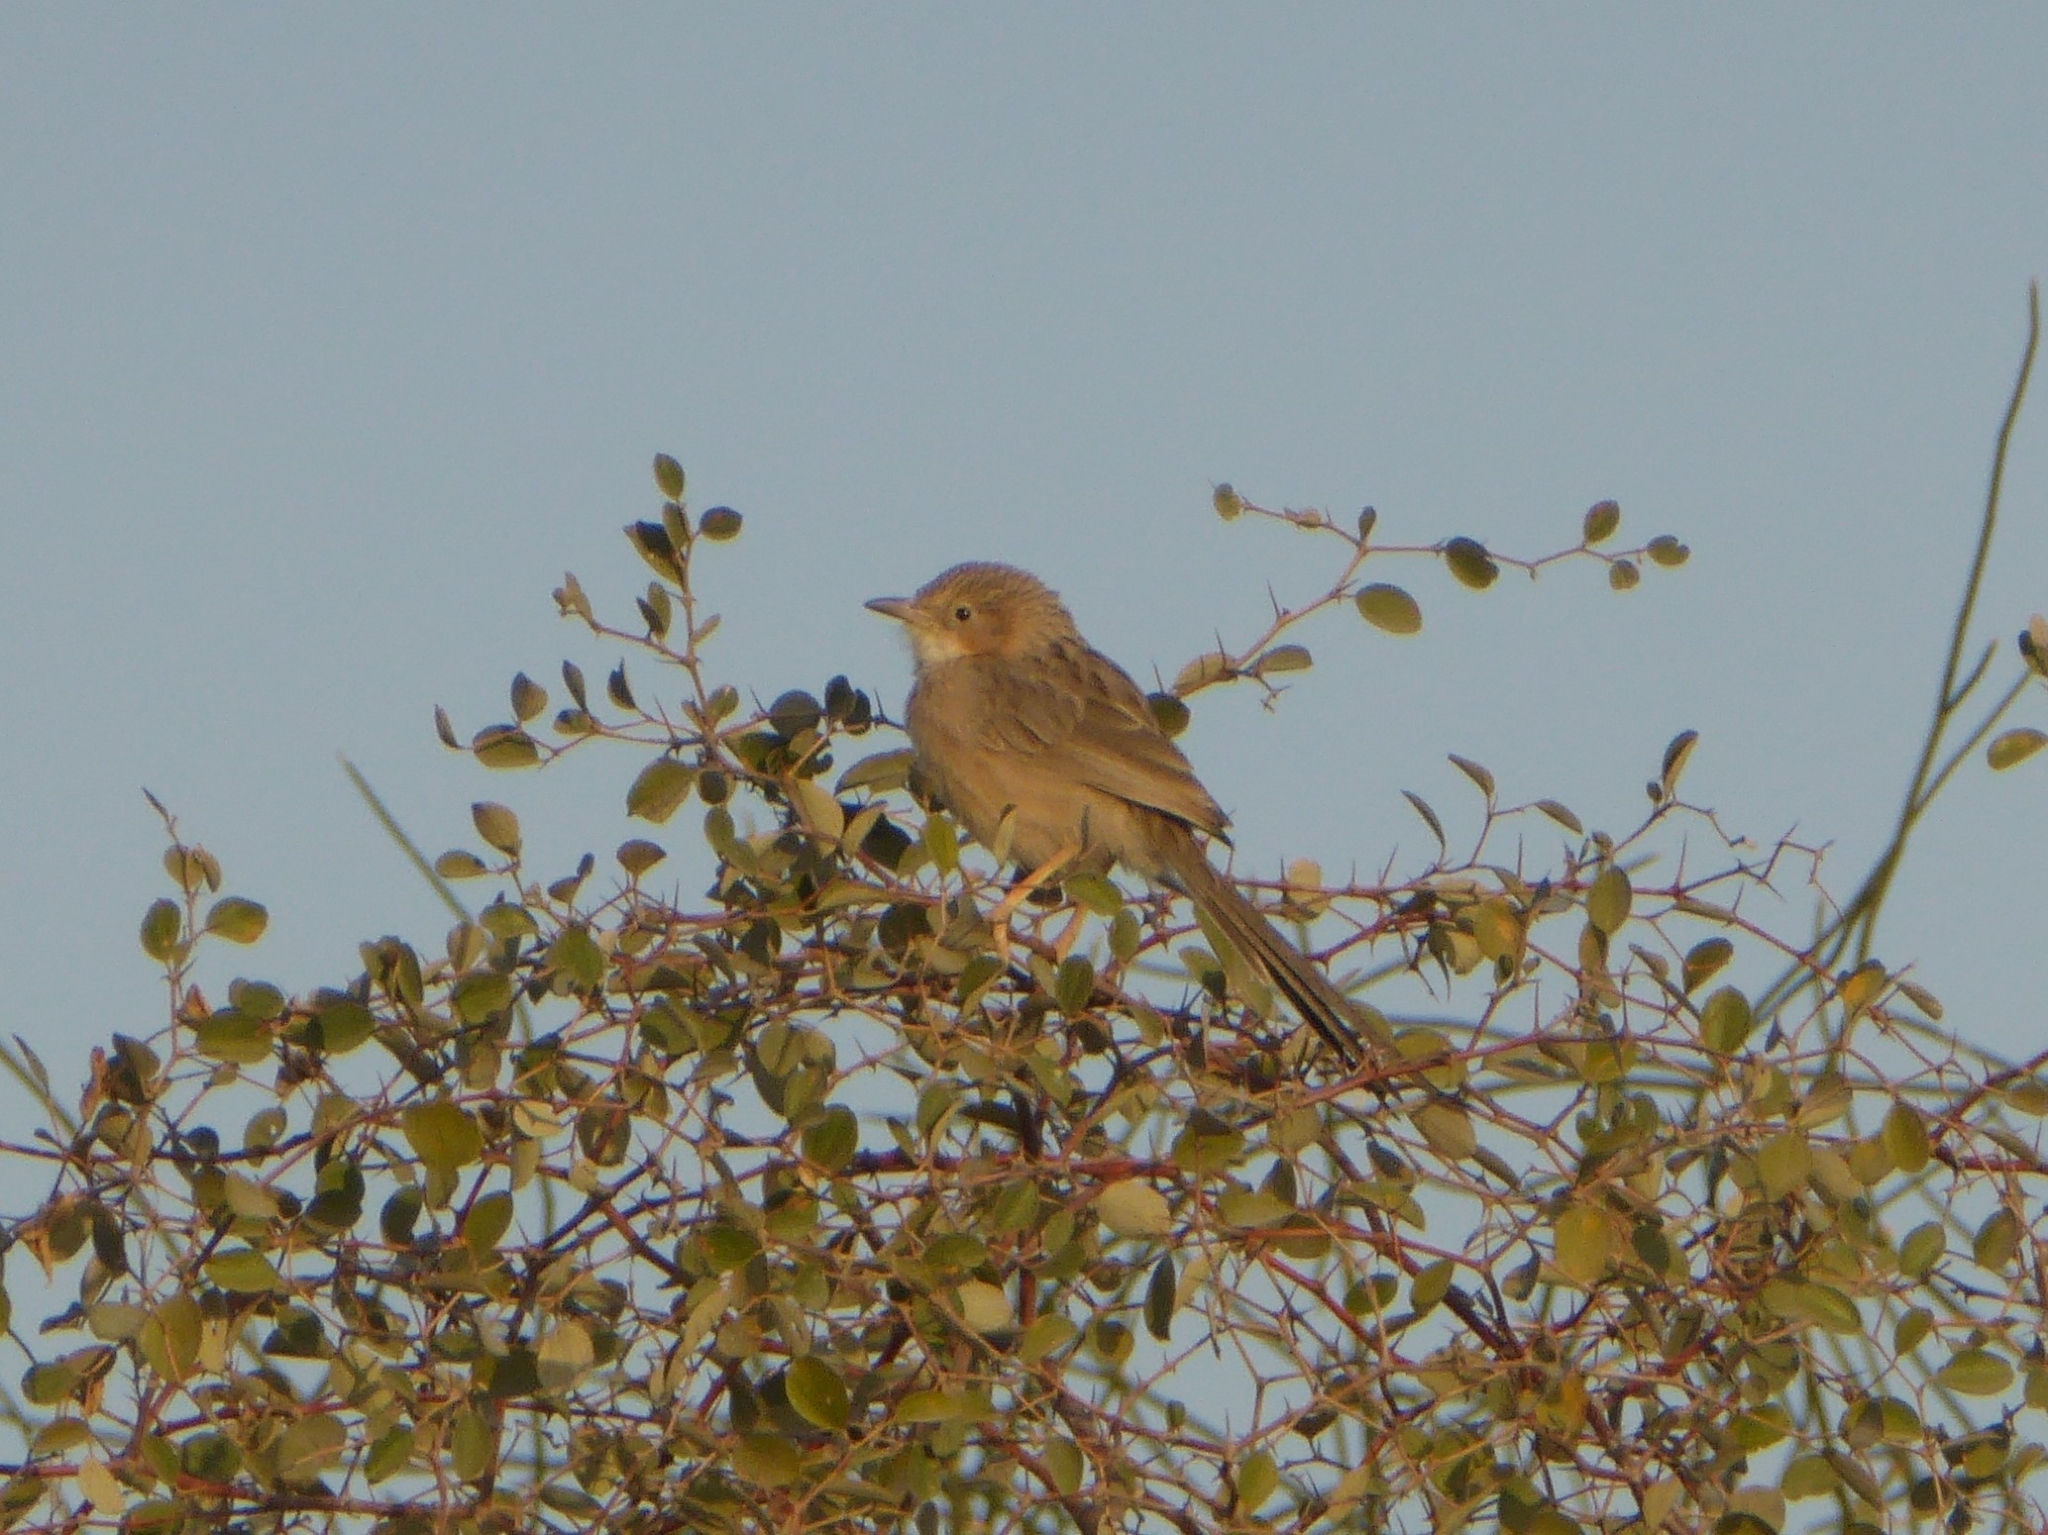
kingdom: Animalia
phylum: Chordata
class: Aves
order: Passeriformes
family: Leiothrichidae
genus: Turdoides
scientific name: Turdoides caudata
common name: Common babbler
